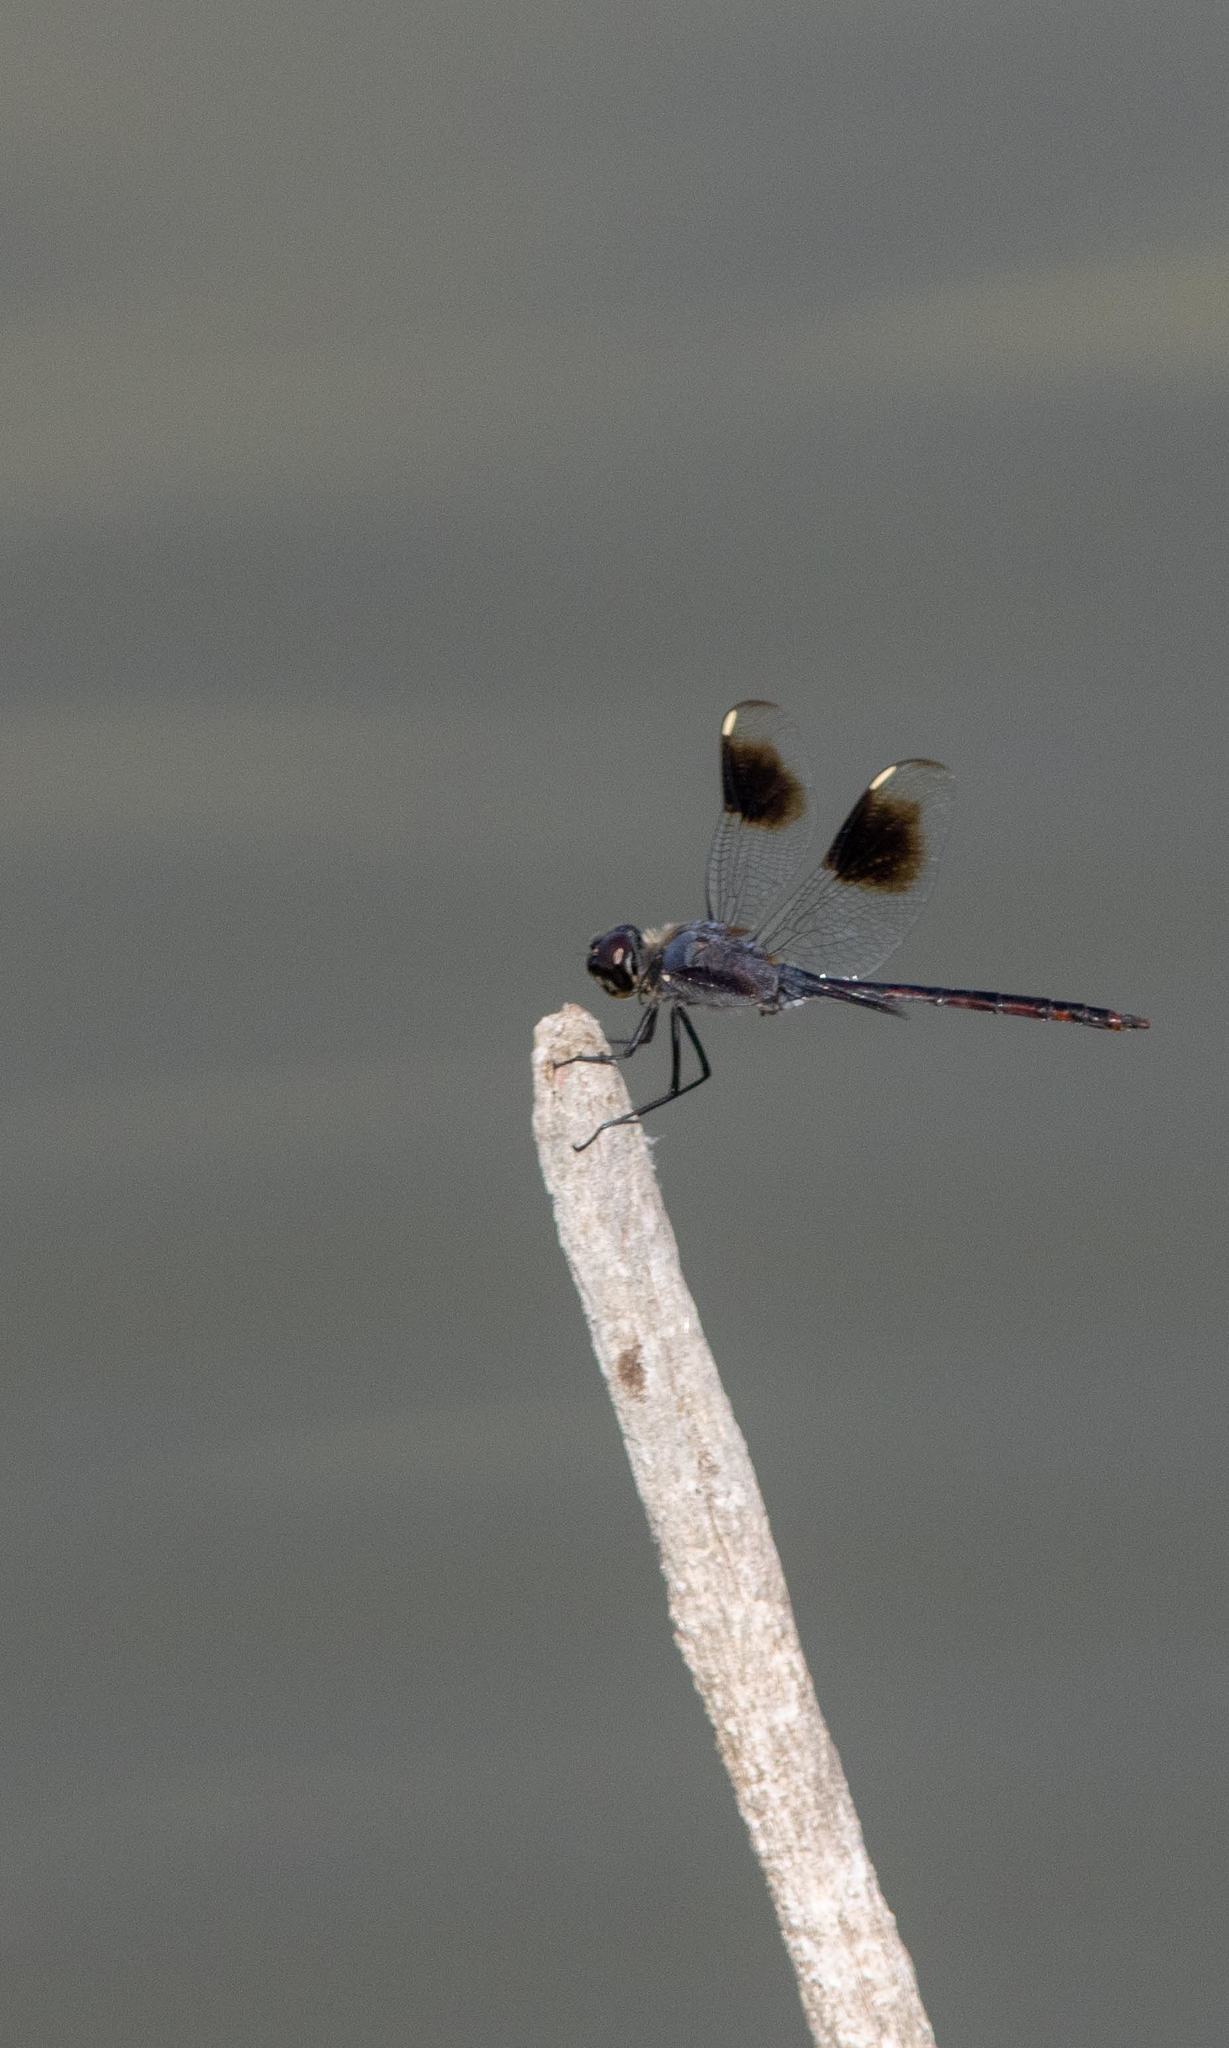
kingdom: Animalia
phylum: Arthropoda
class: Insecta
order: Odonata
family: Libellulidae
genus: Brachymesia
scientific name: Brachymesia gravida
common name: Four-spotted pennant
